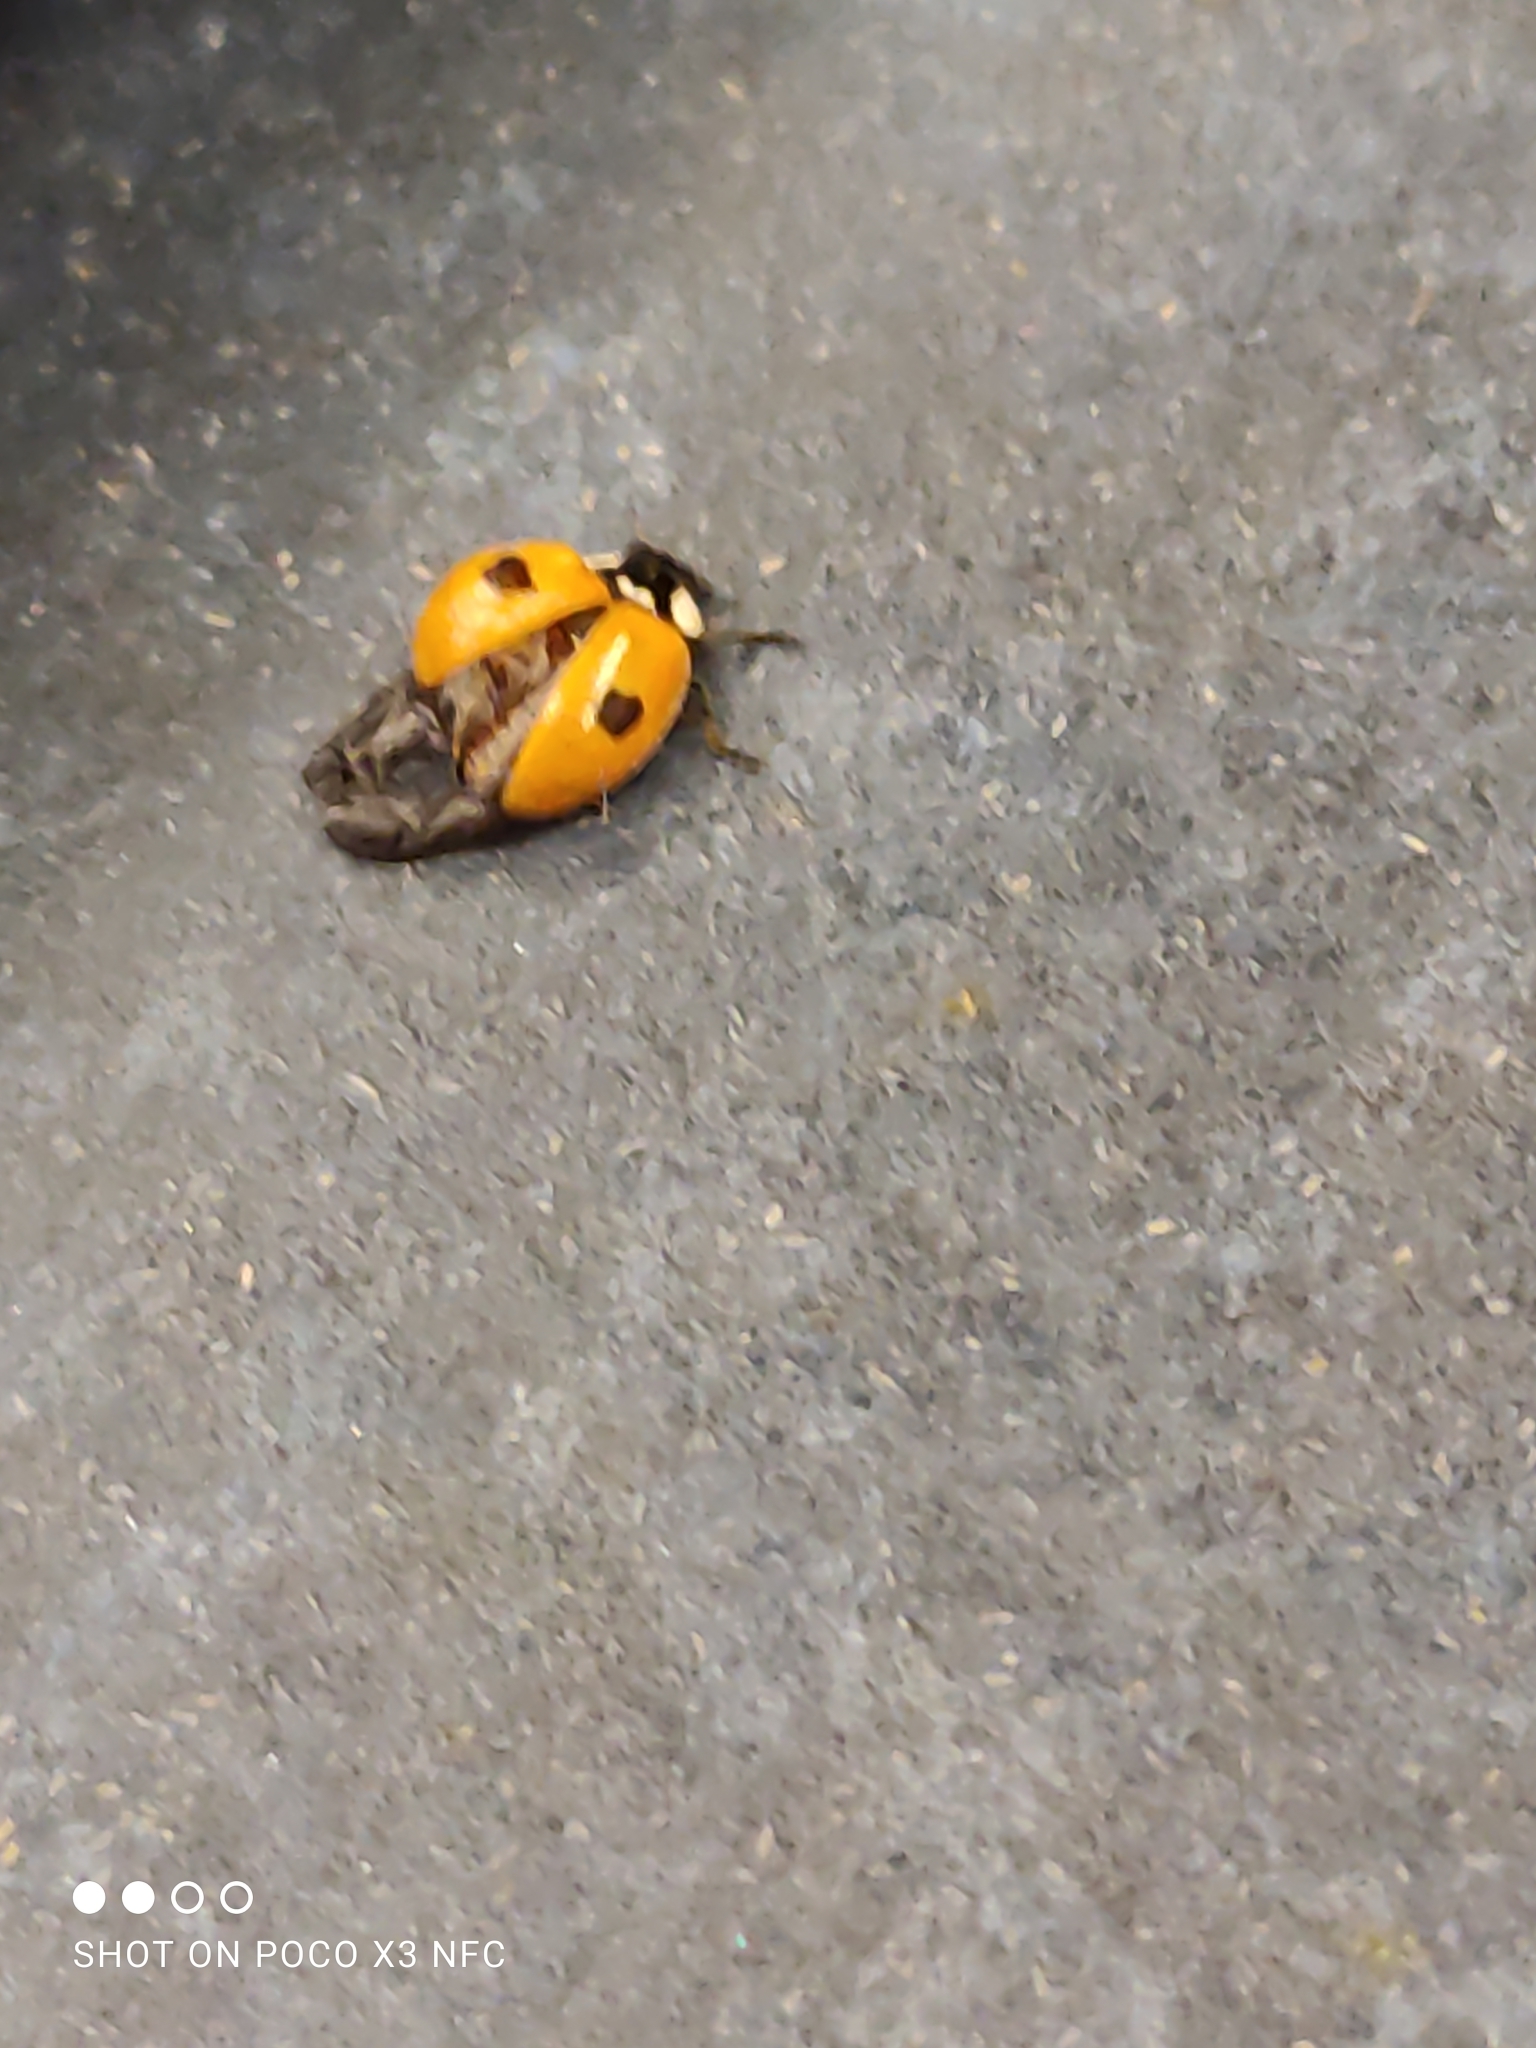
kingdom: Animalia
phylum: Arthropoda
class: Insecta
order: Coleoptera
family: Coccinellidae
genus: Adalia
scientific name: Adalia bipunctata
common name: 2-spot ladybird
